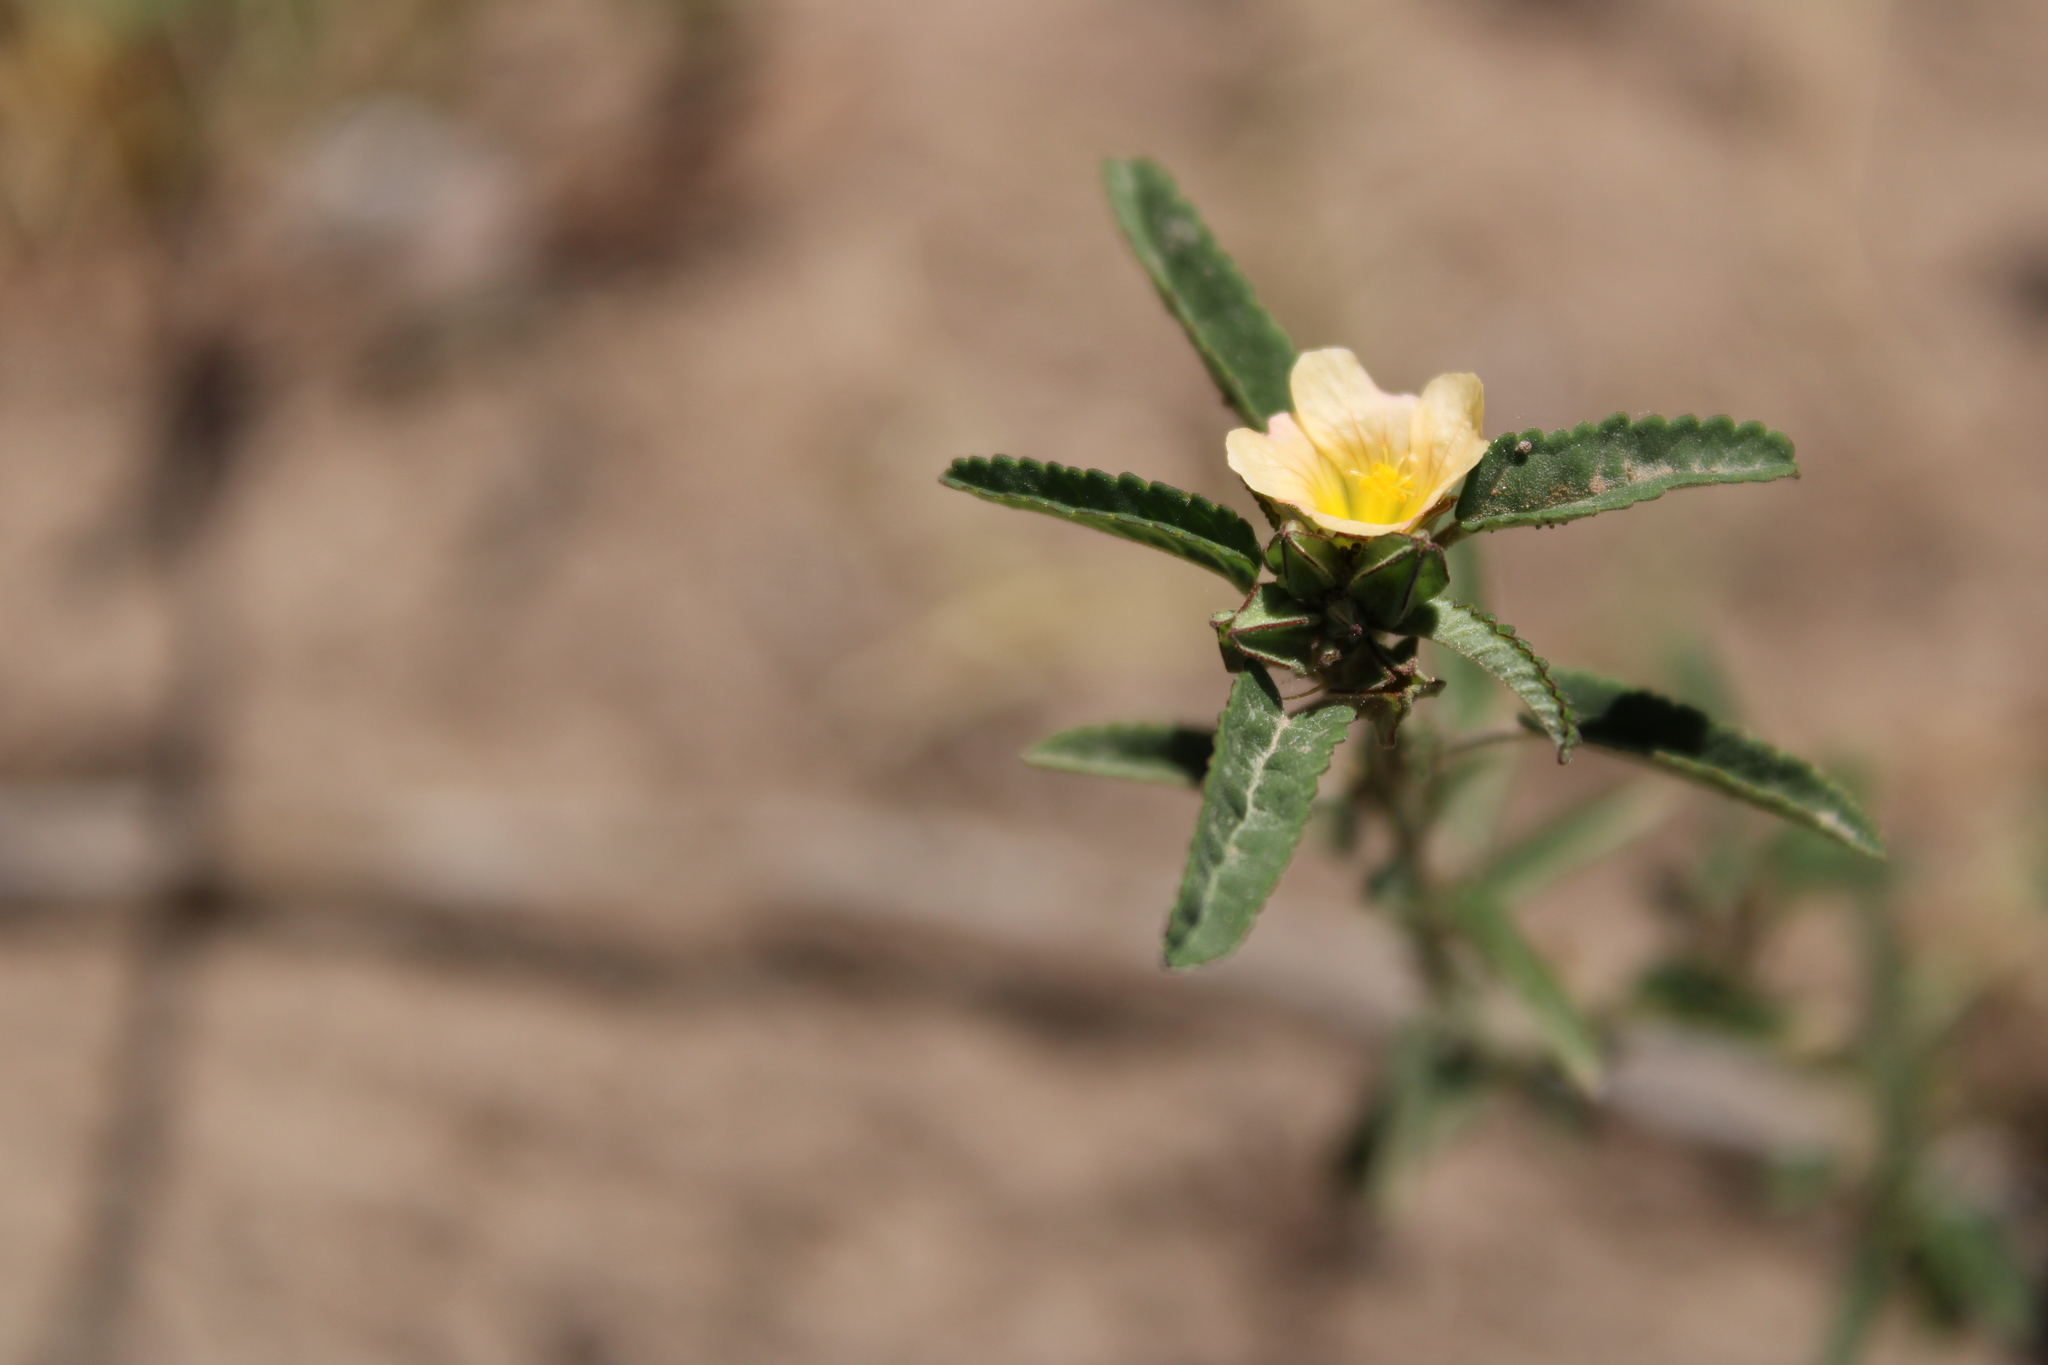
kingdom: Plantae
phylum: Tracheophyta
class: Magnoliopsida
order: Malvales
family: Malvaceae
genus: Sida
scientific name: Sida rhombifolia
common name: Queensland-hemp
